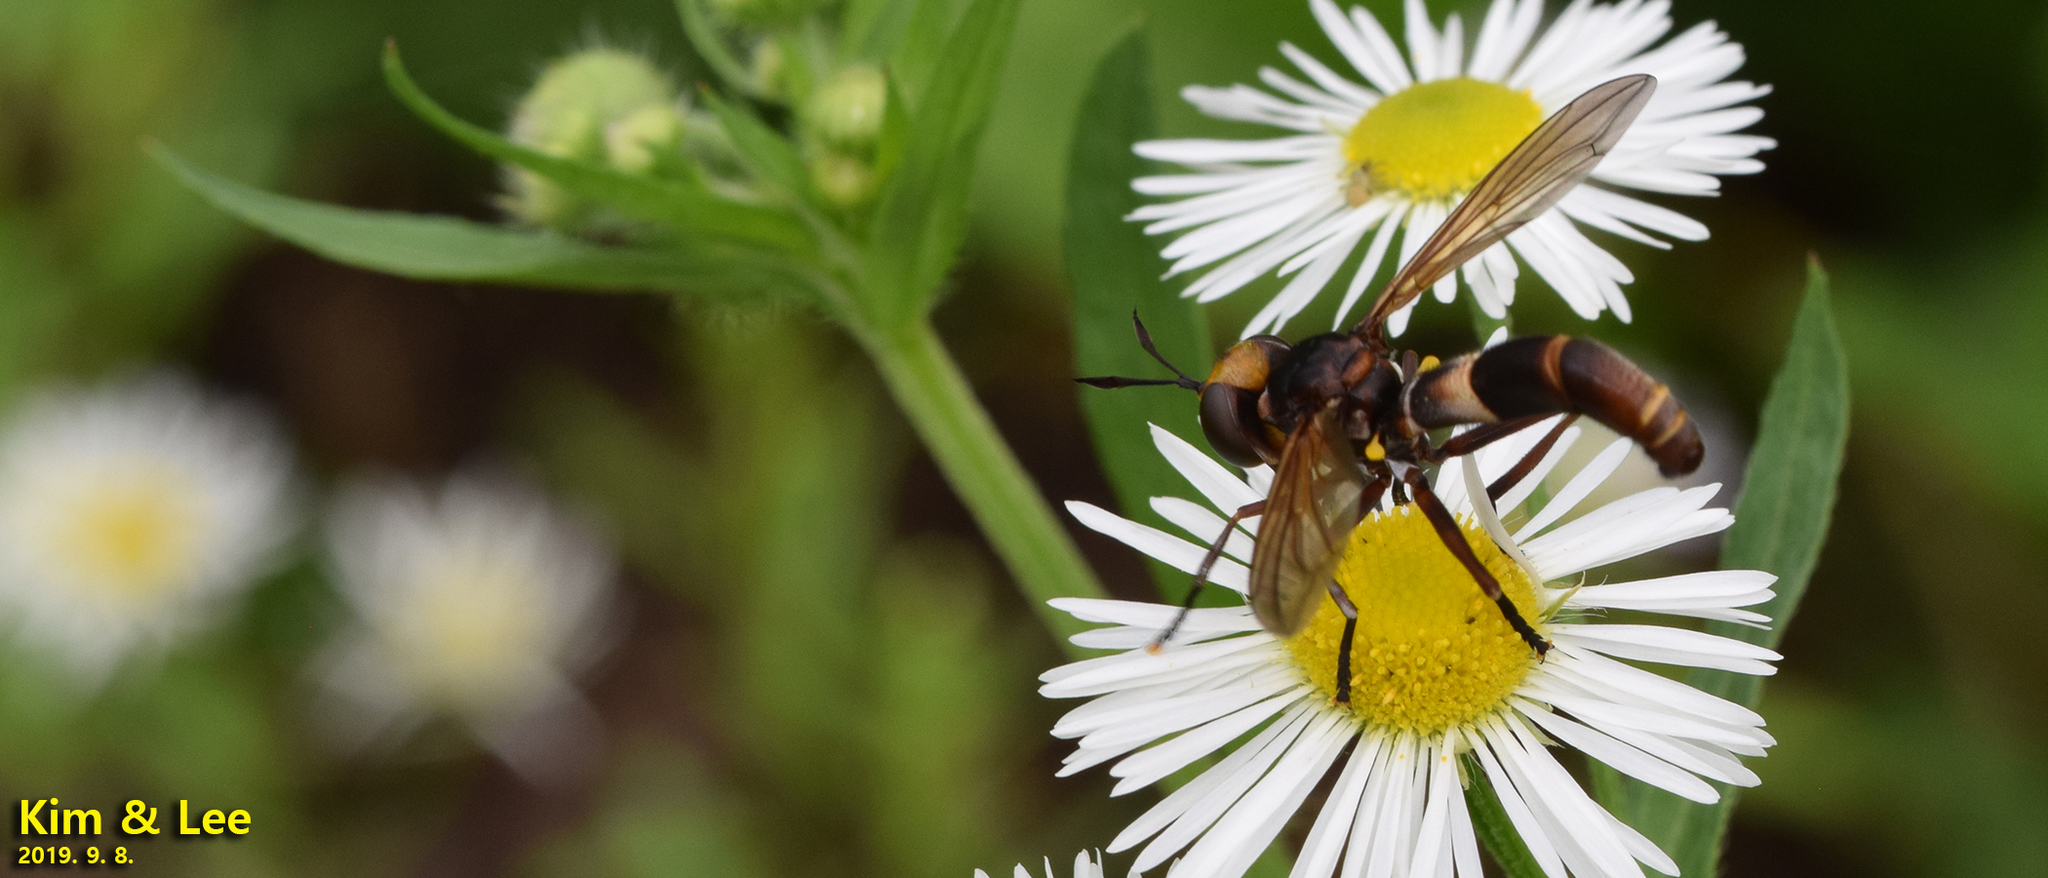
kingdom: Animalia
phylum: Arthropoda
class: Insecta
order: Diptera
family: Conopidae
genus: Siniconops
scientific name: Siniconops grandens
